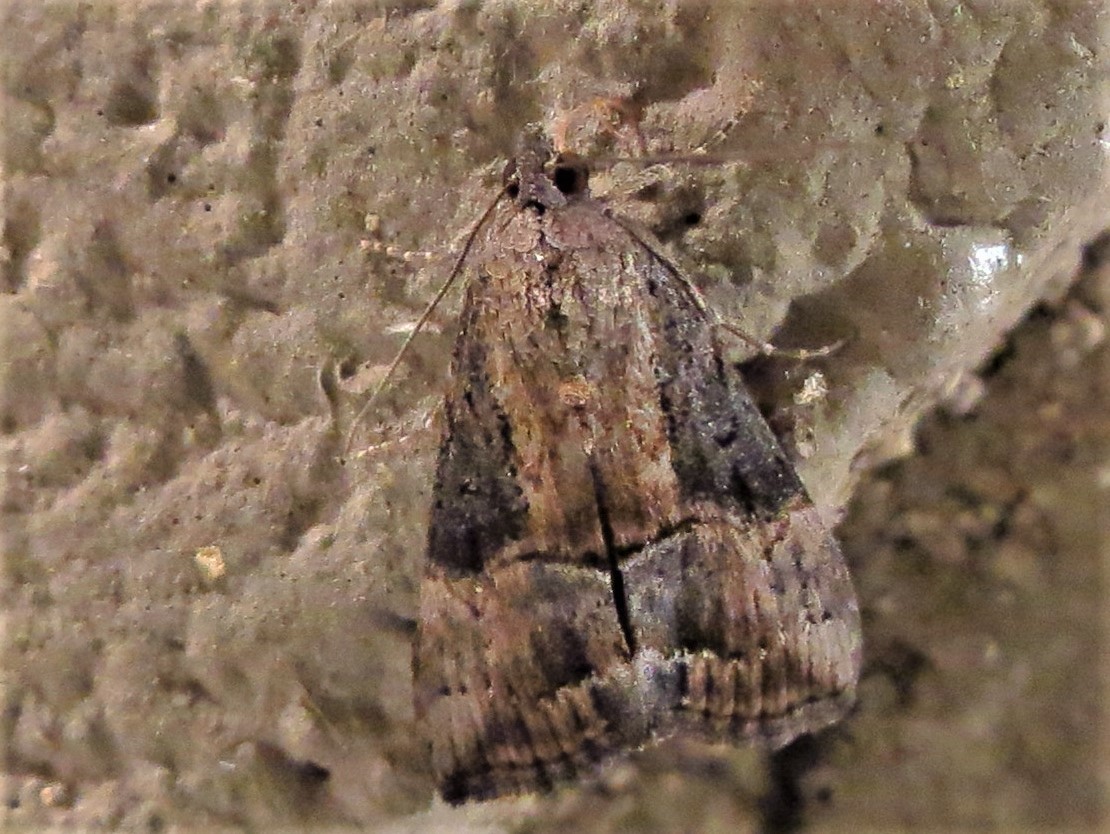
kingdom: Animalia
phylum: Arthropoda
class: Insecta
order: Lepidoptera
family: Erebidae
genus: Hypena
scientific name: Hypena scabra
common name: Green cloverworm
